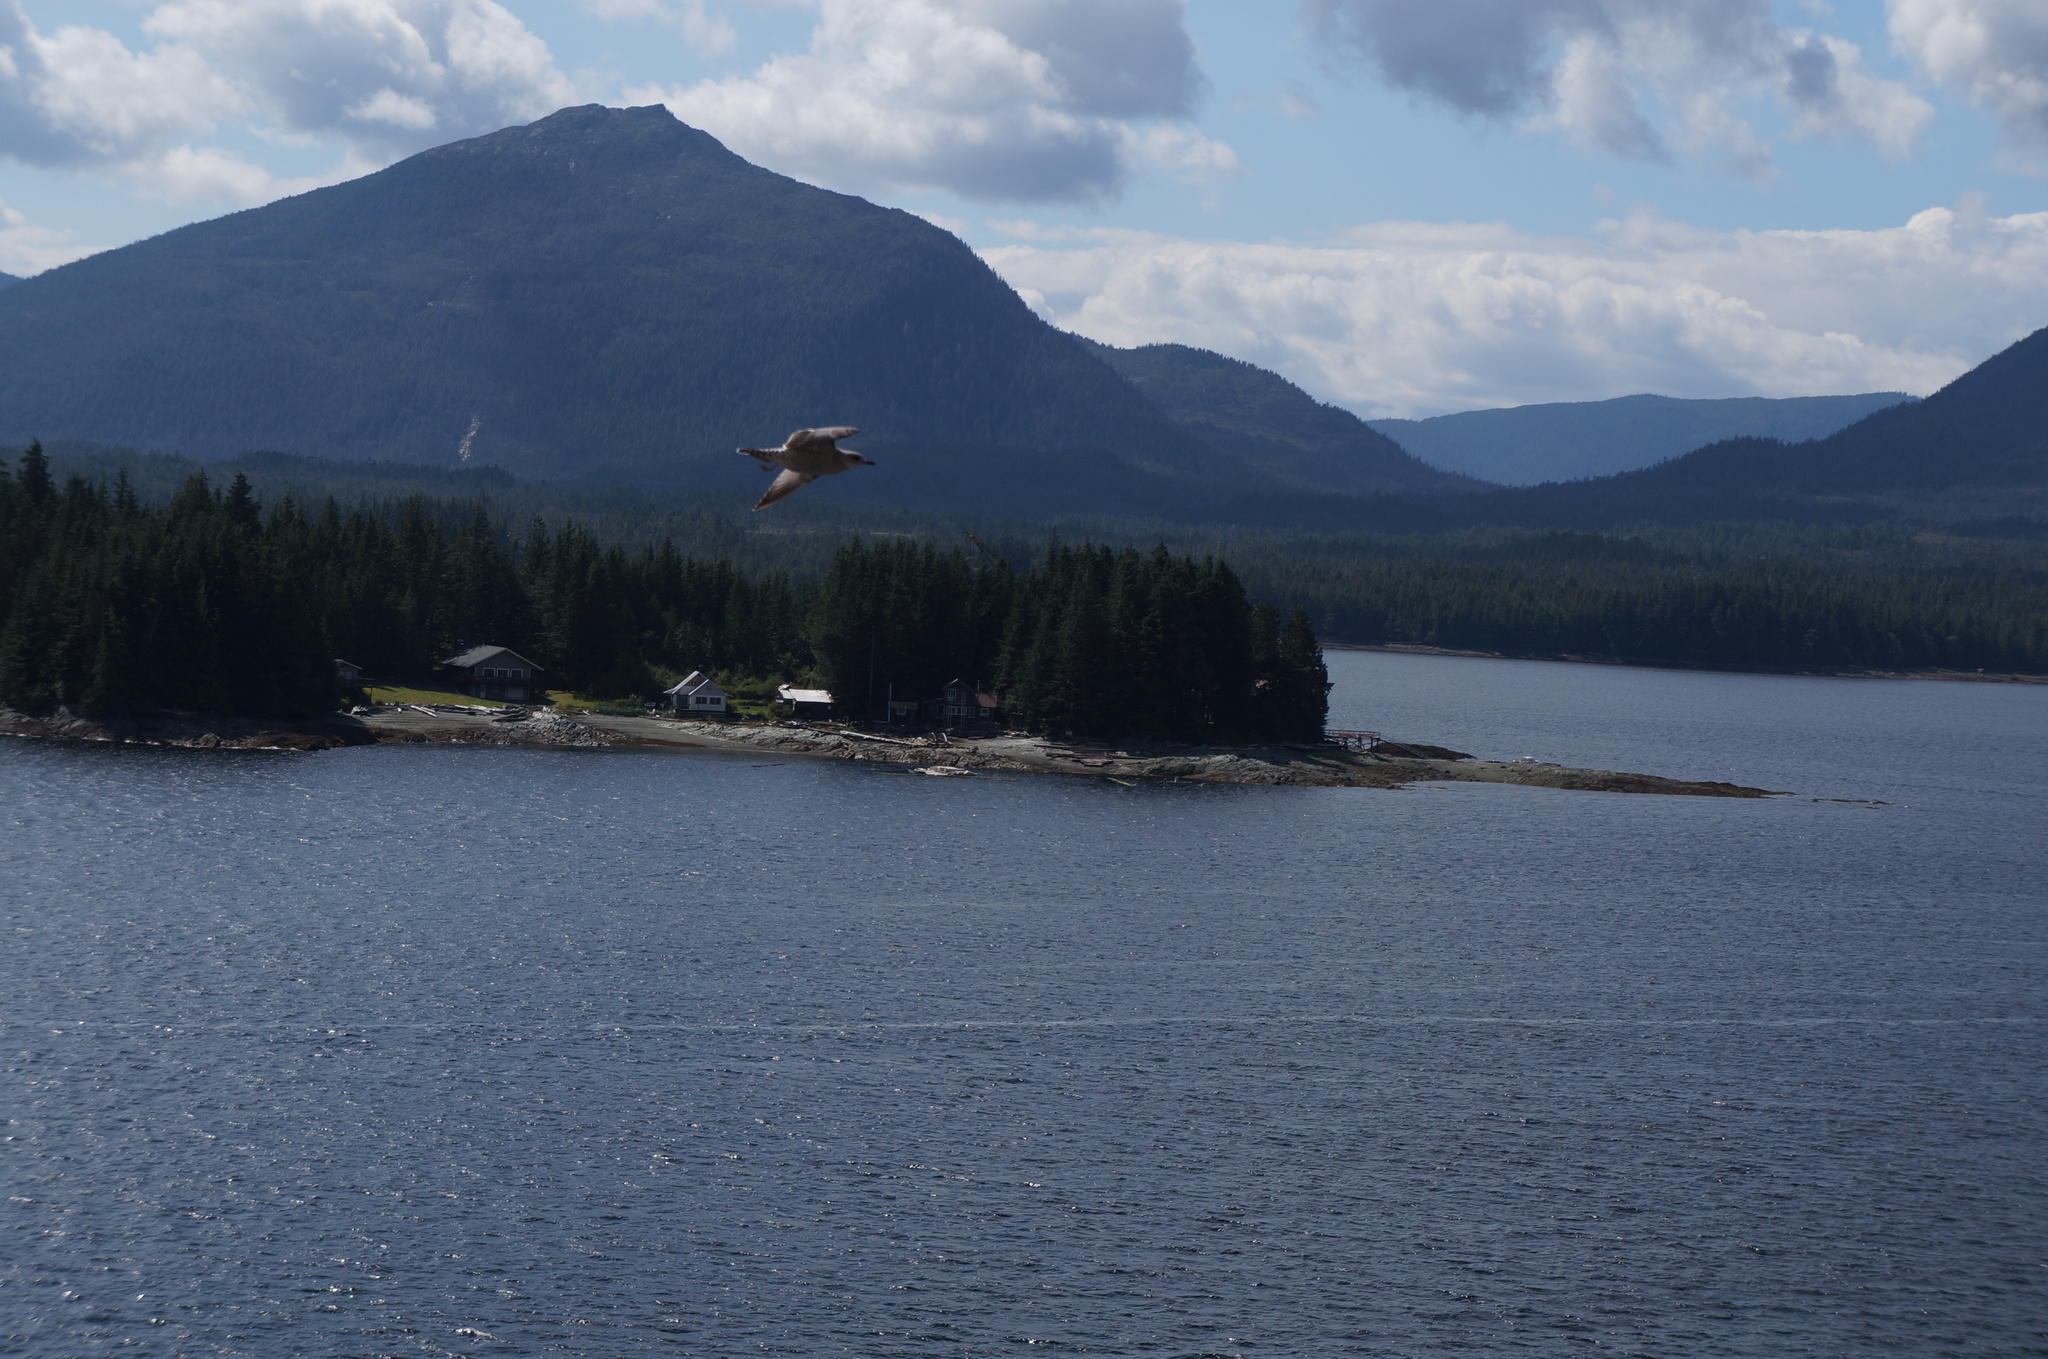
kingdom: Animalia
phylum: Chordata
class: Aves
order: Charadriiformes
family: Laridae
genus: Larus
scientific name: Larus argentatus
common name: Herring gull
